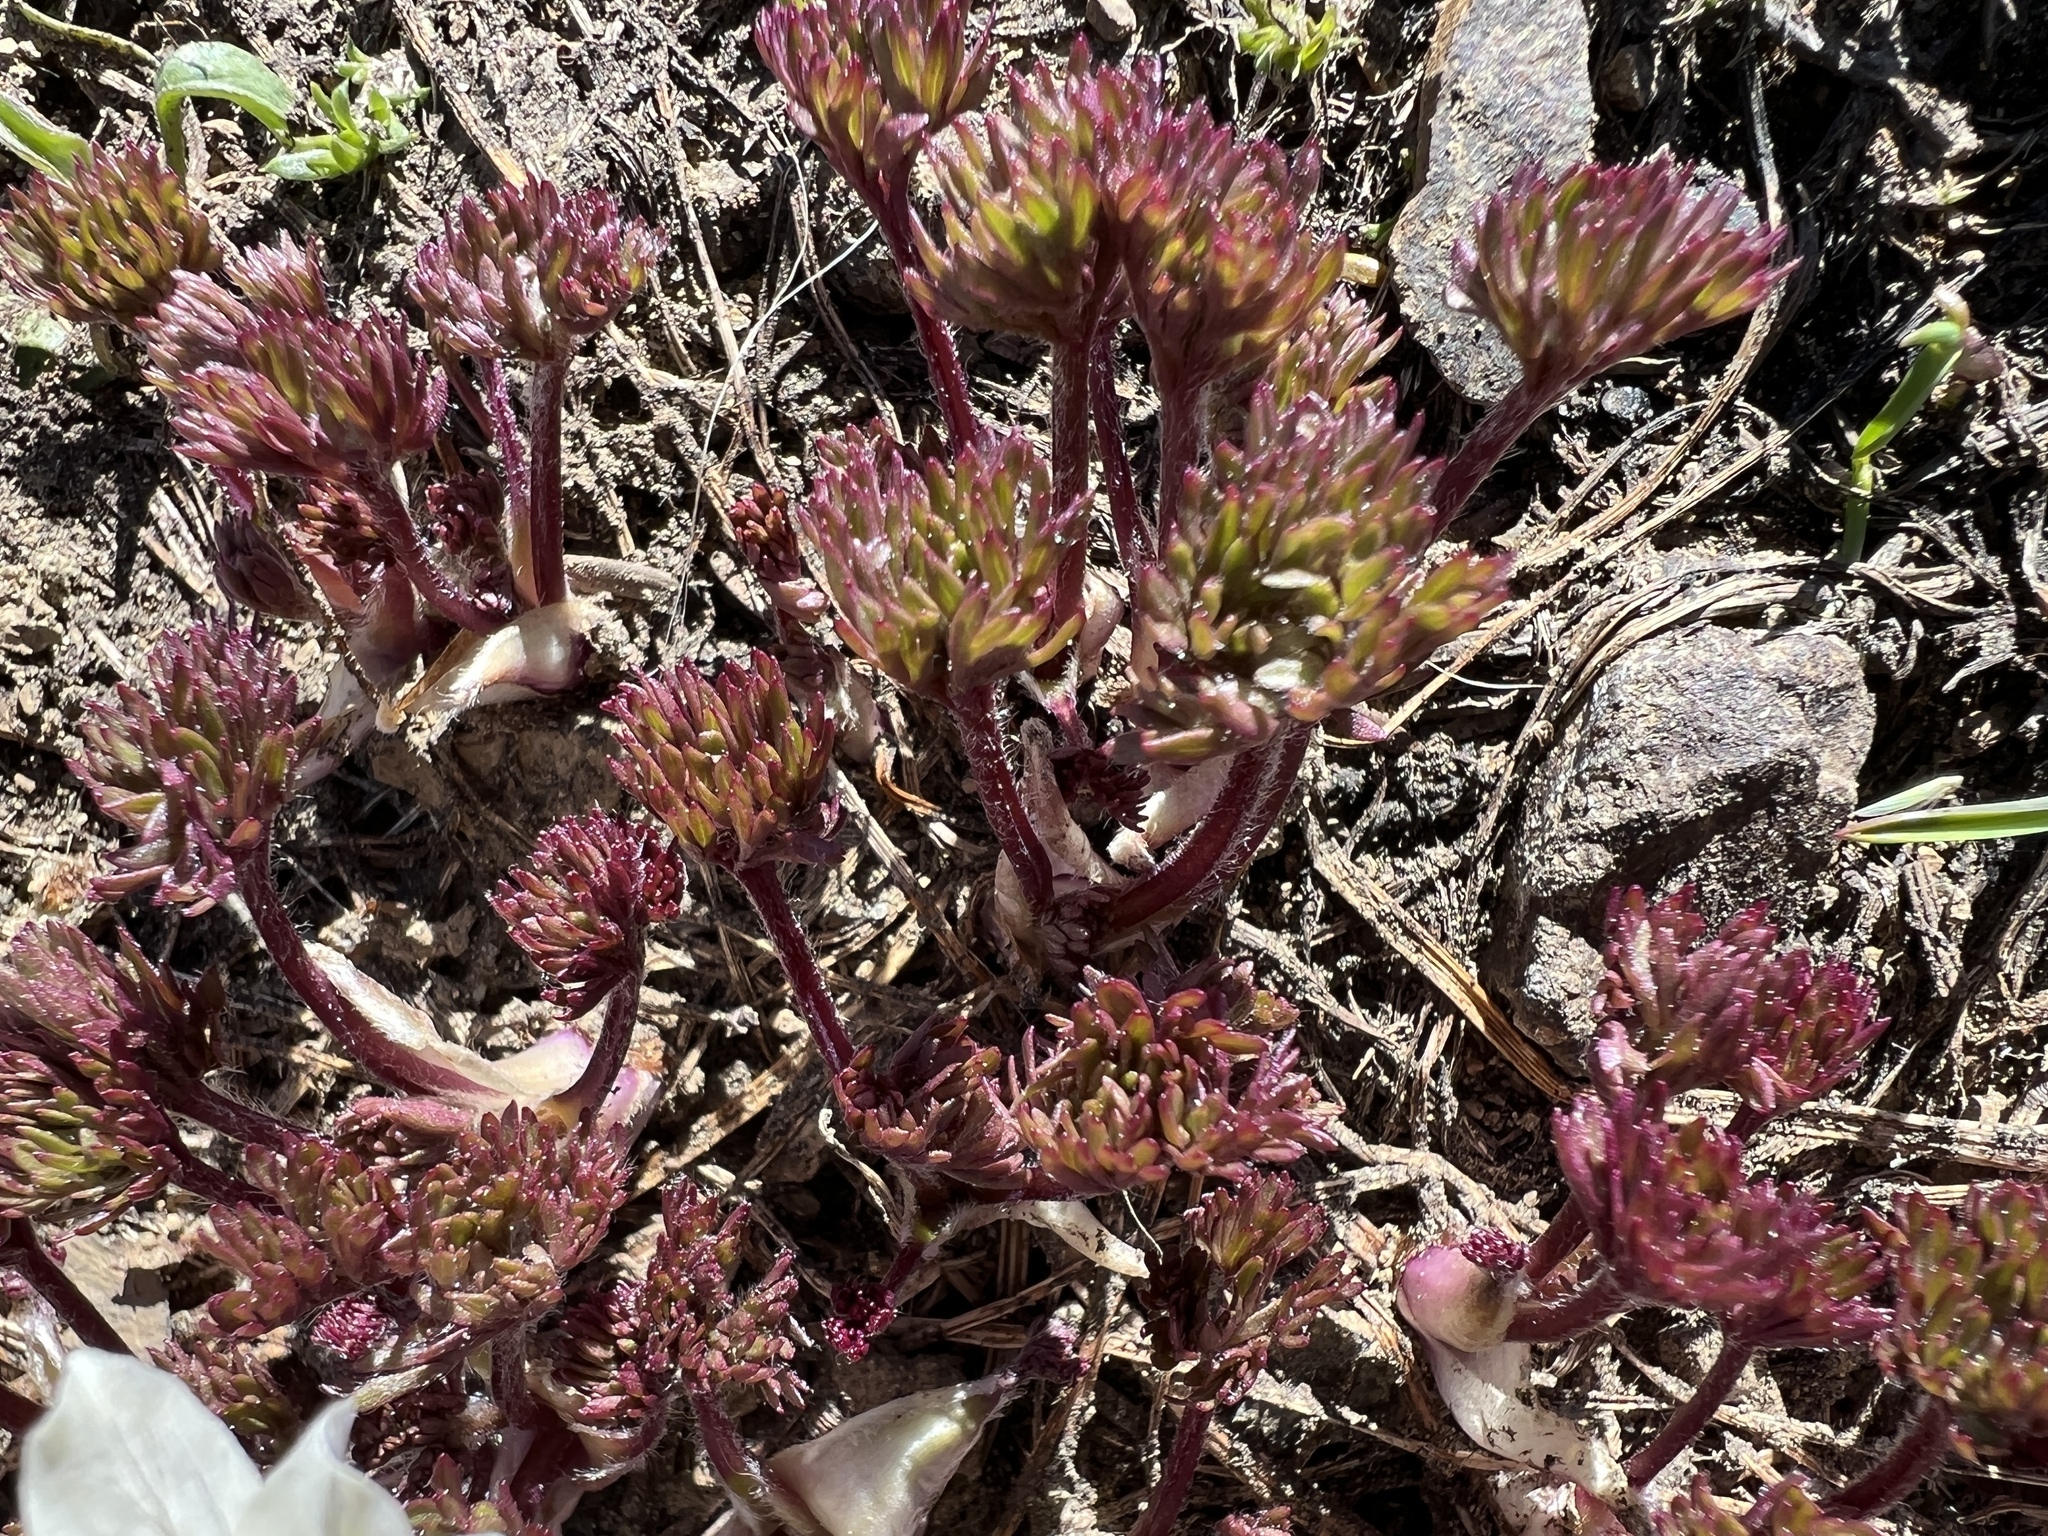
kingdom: Plantae
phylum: Tracheophyta
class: Magnoliopsida
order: Ranunculales
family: Ranunculaceae
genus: Anemone
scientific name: Anemone drummondii
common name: Drummond's anemone
